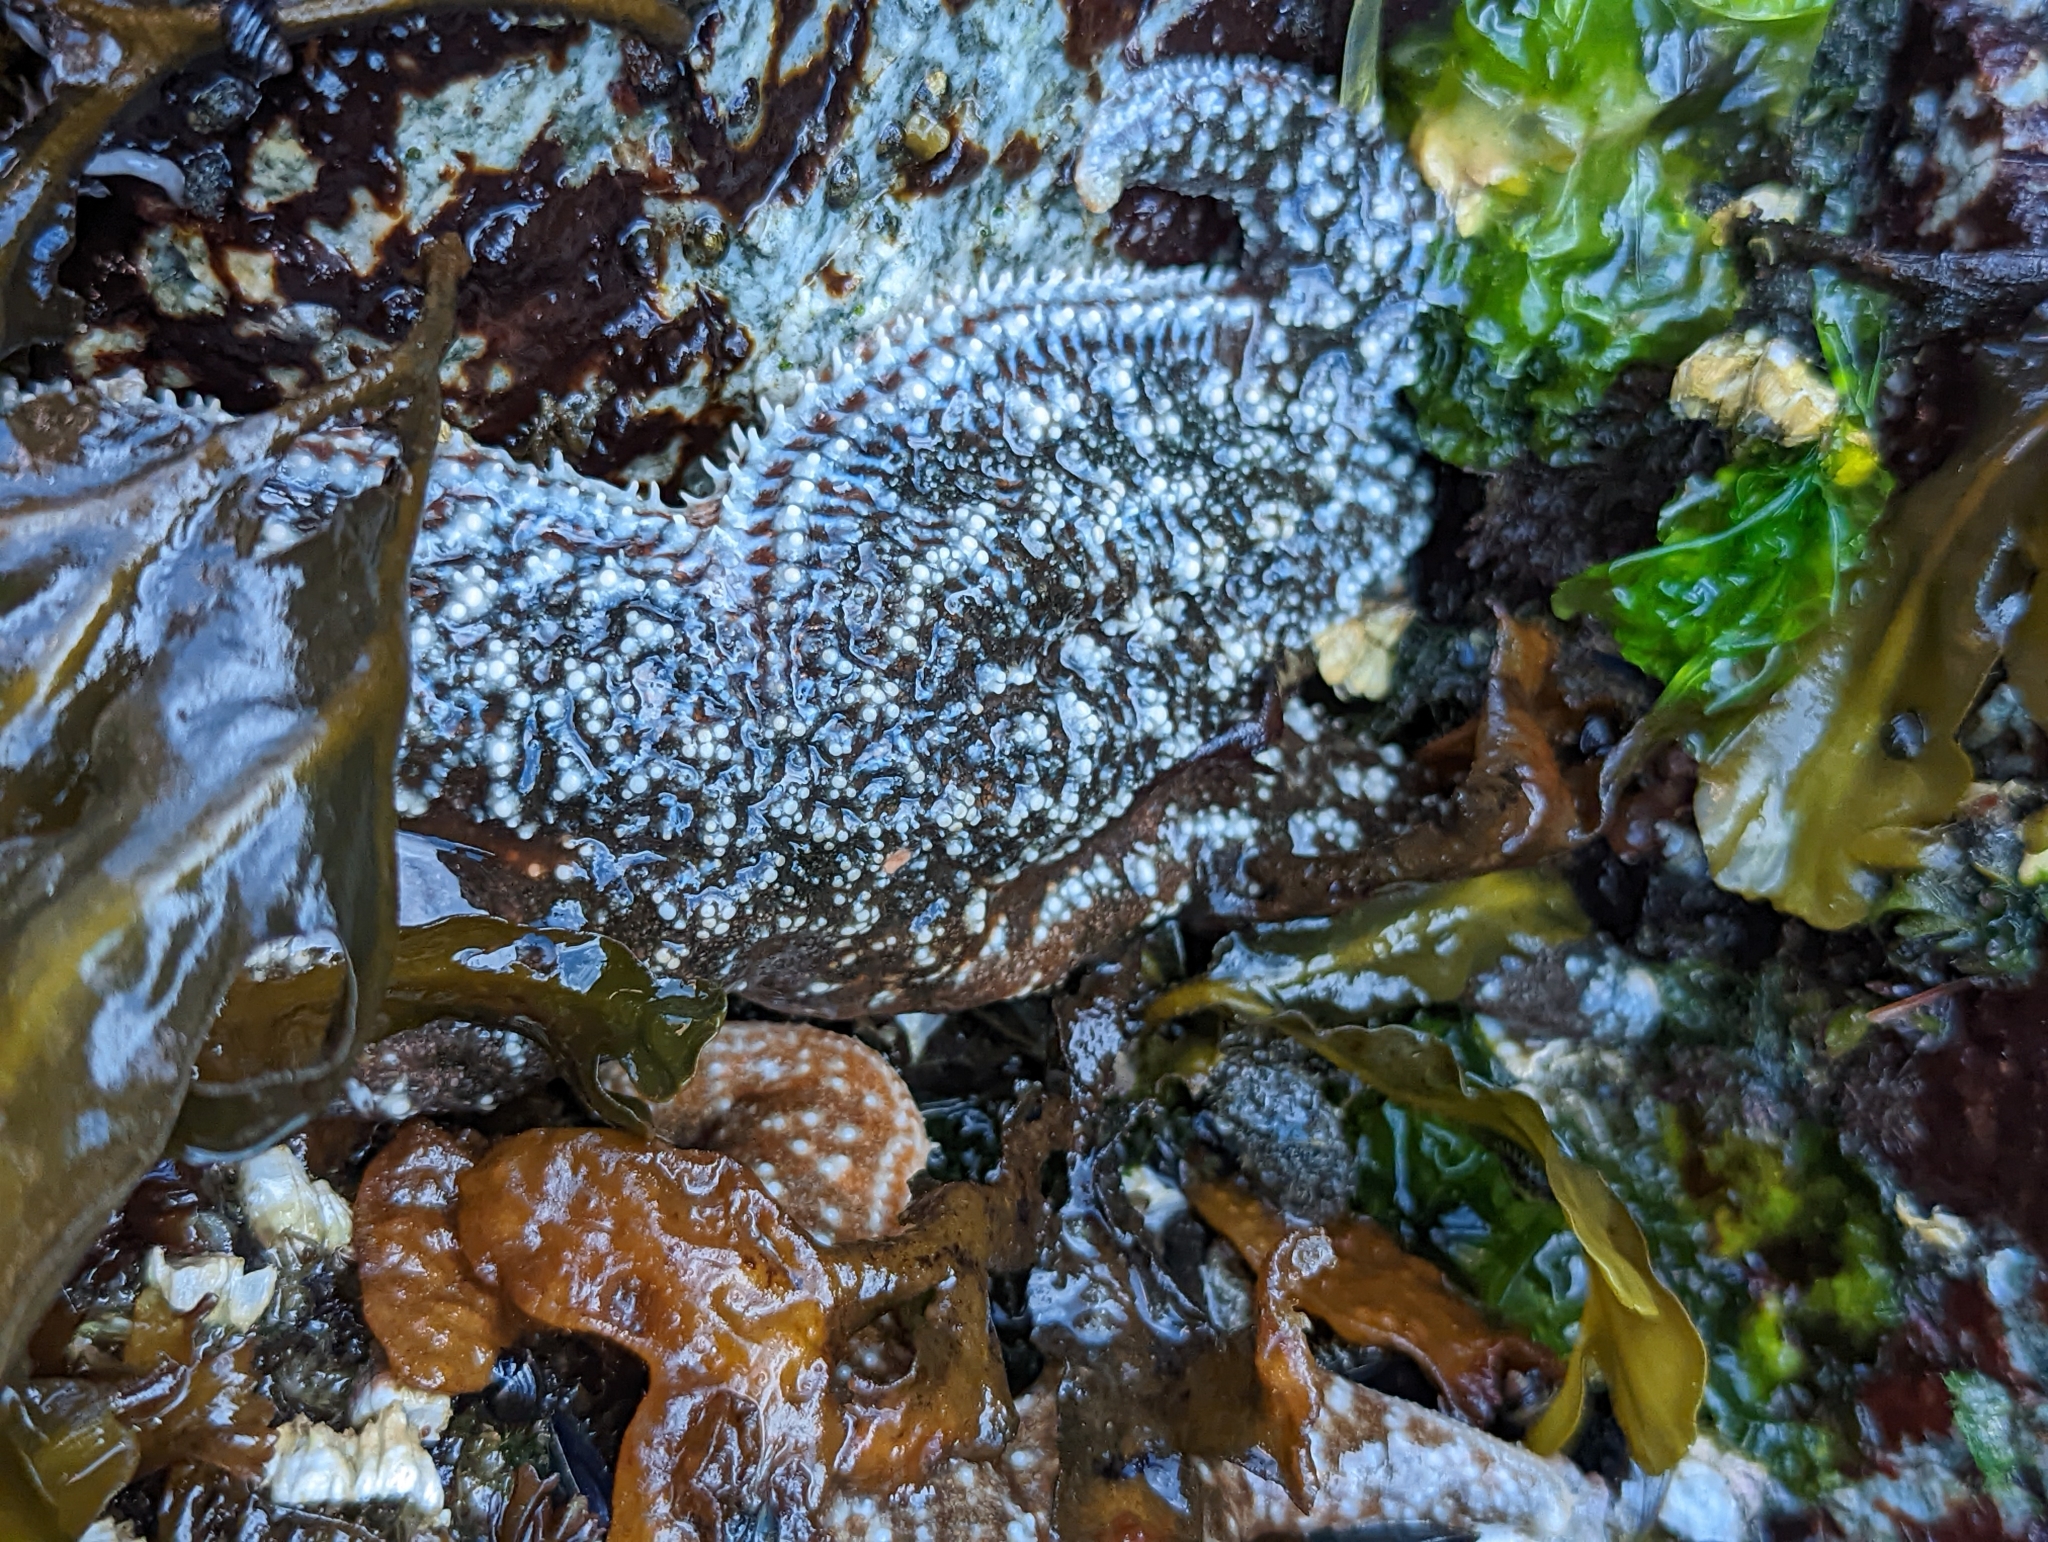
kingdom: Animalia
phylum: Echinodermata
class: Asteroidea
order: Forcipulatida
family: Asteriidae
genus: Evasterias
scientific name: Evasterias troschelii
